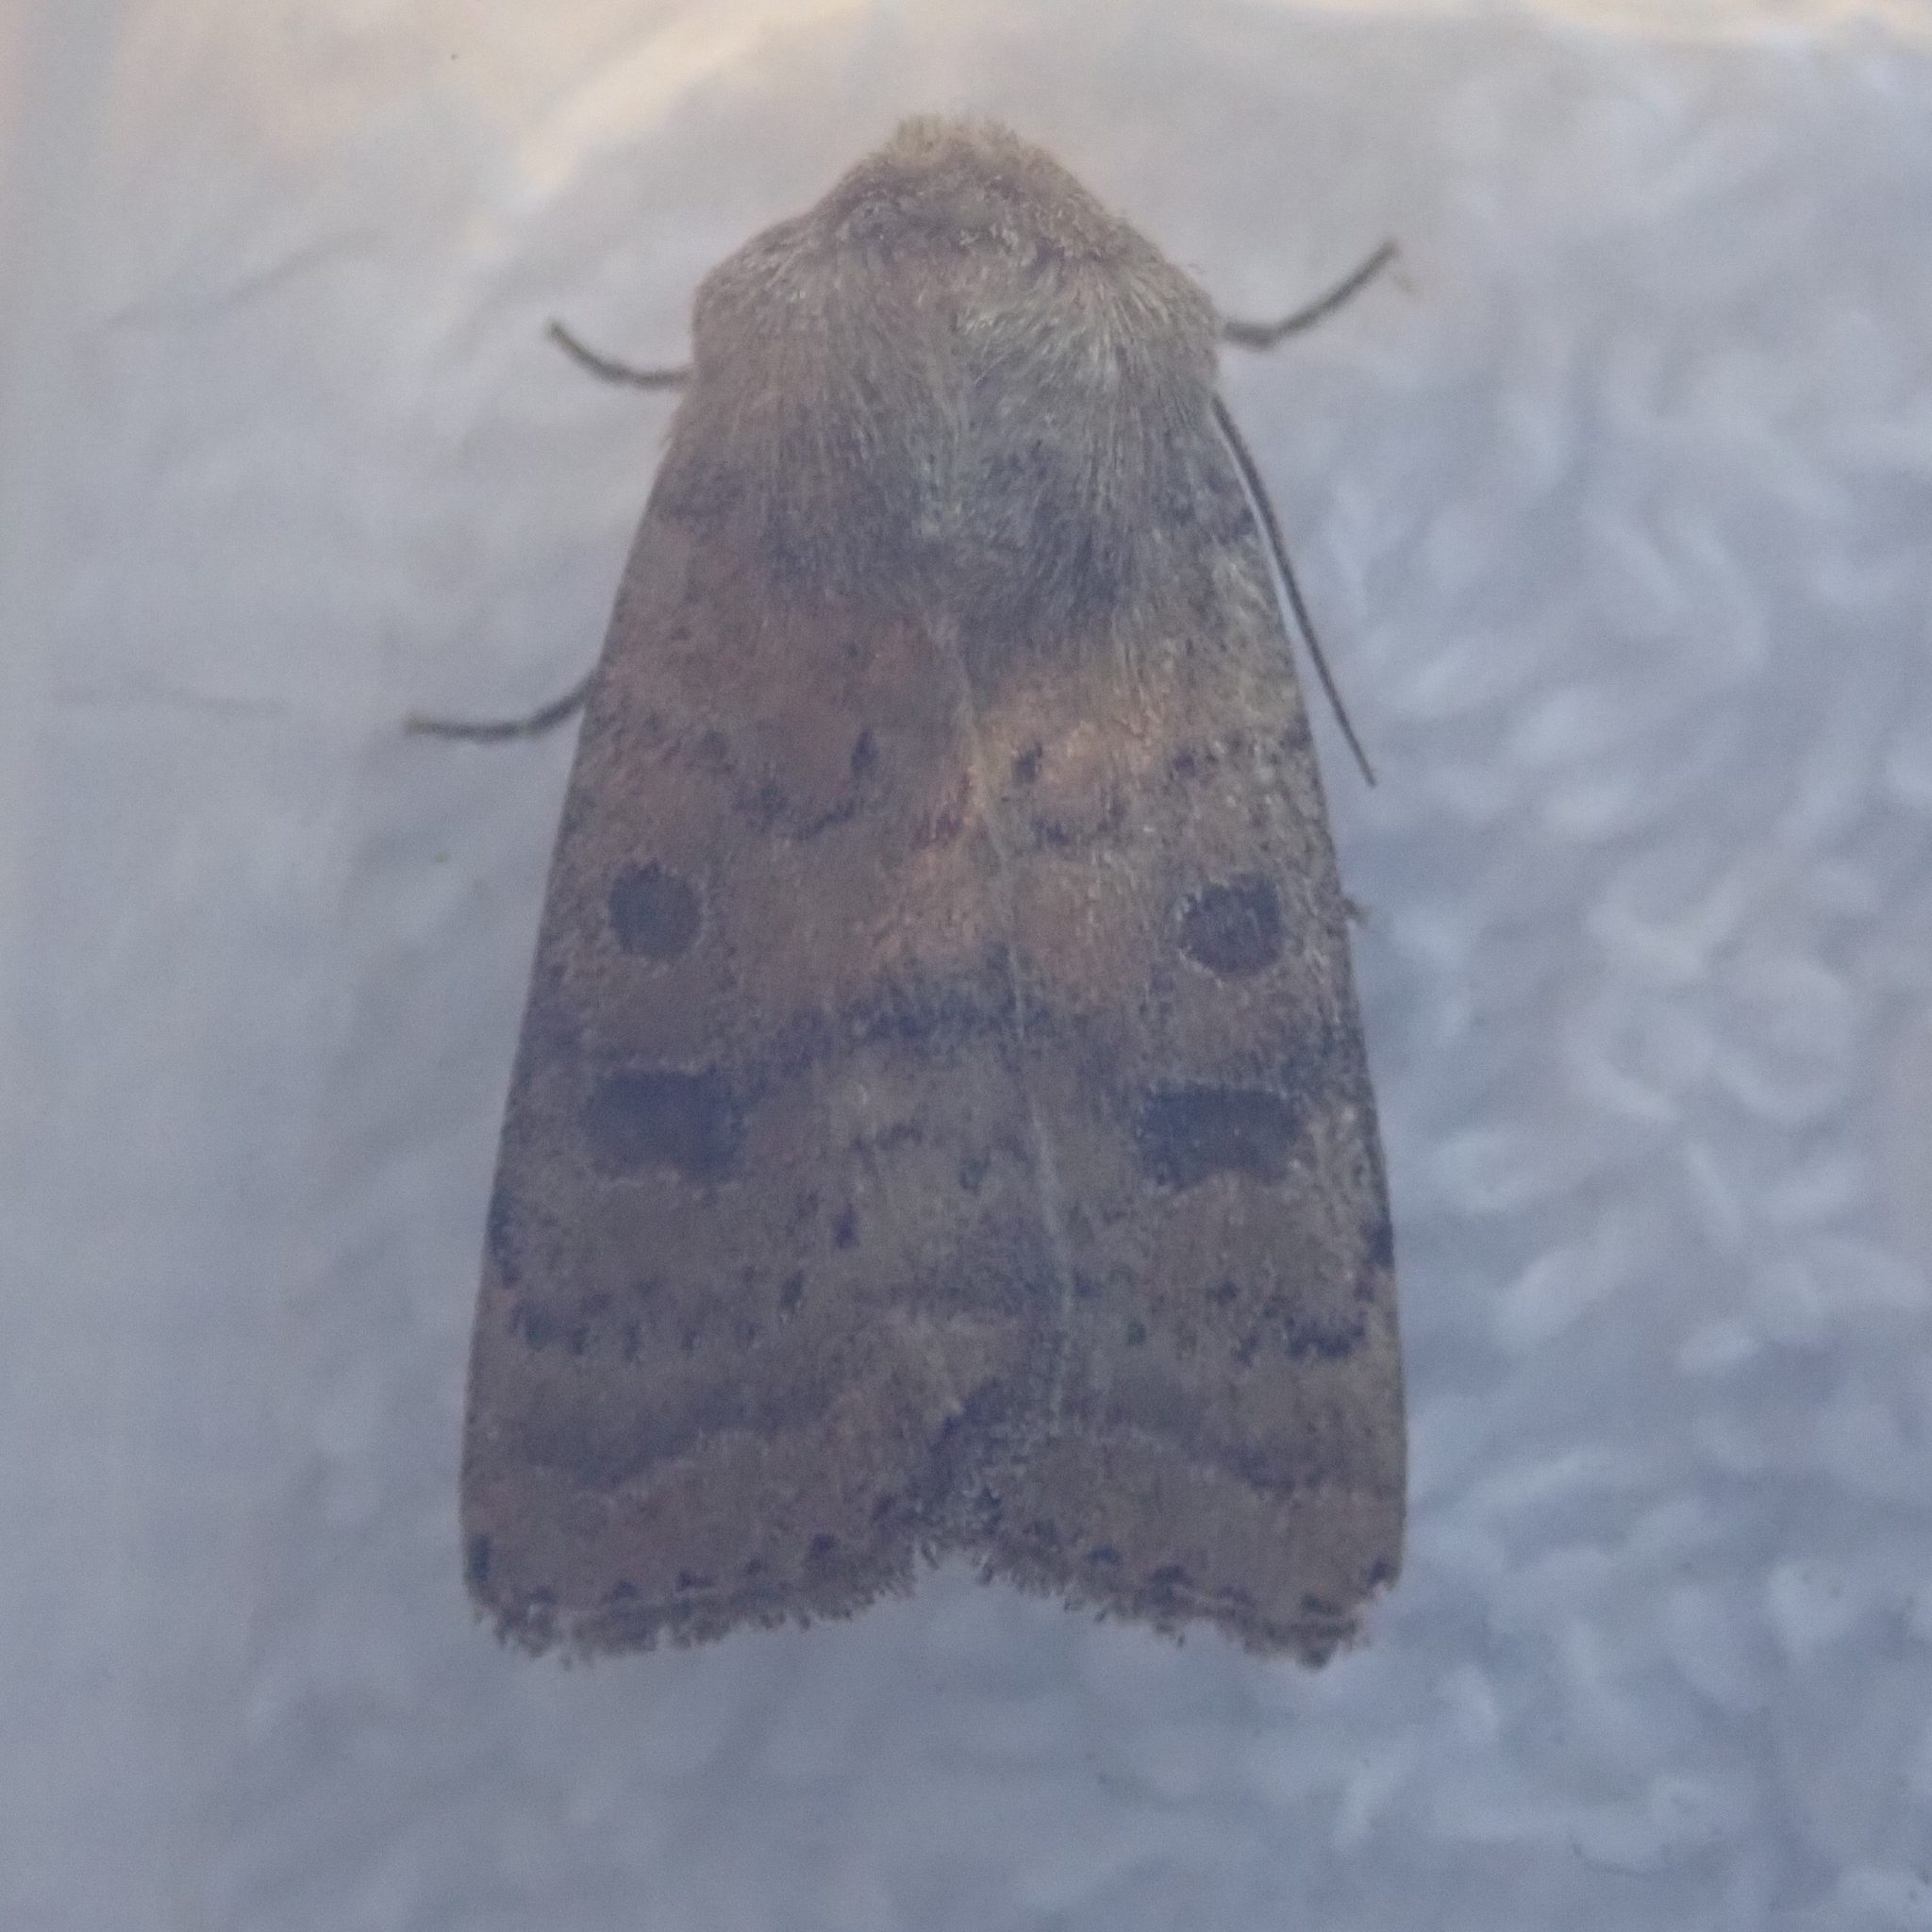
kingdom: Animalia
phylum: Arthropoda
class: Insecta
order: Lepidoptera
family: Noctuidae
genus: Hoplodrina
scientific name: Hoplodrina octogenaria
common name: Uncertain
